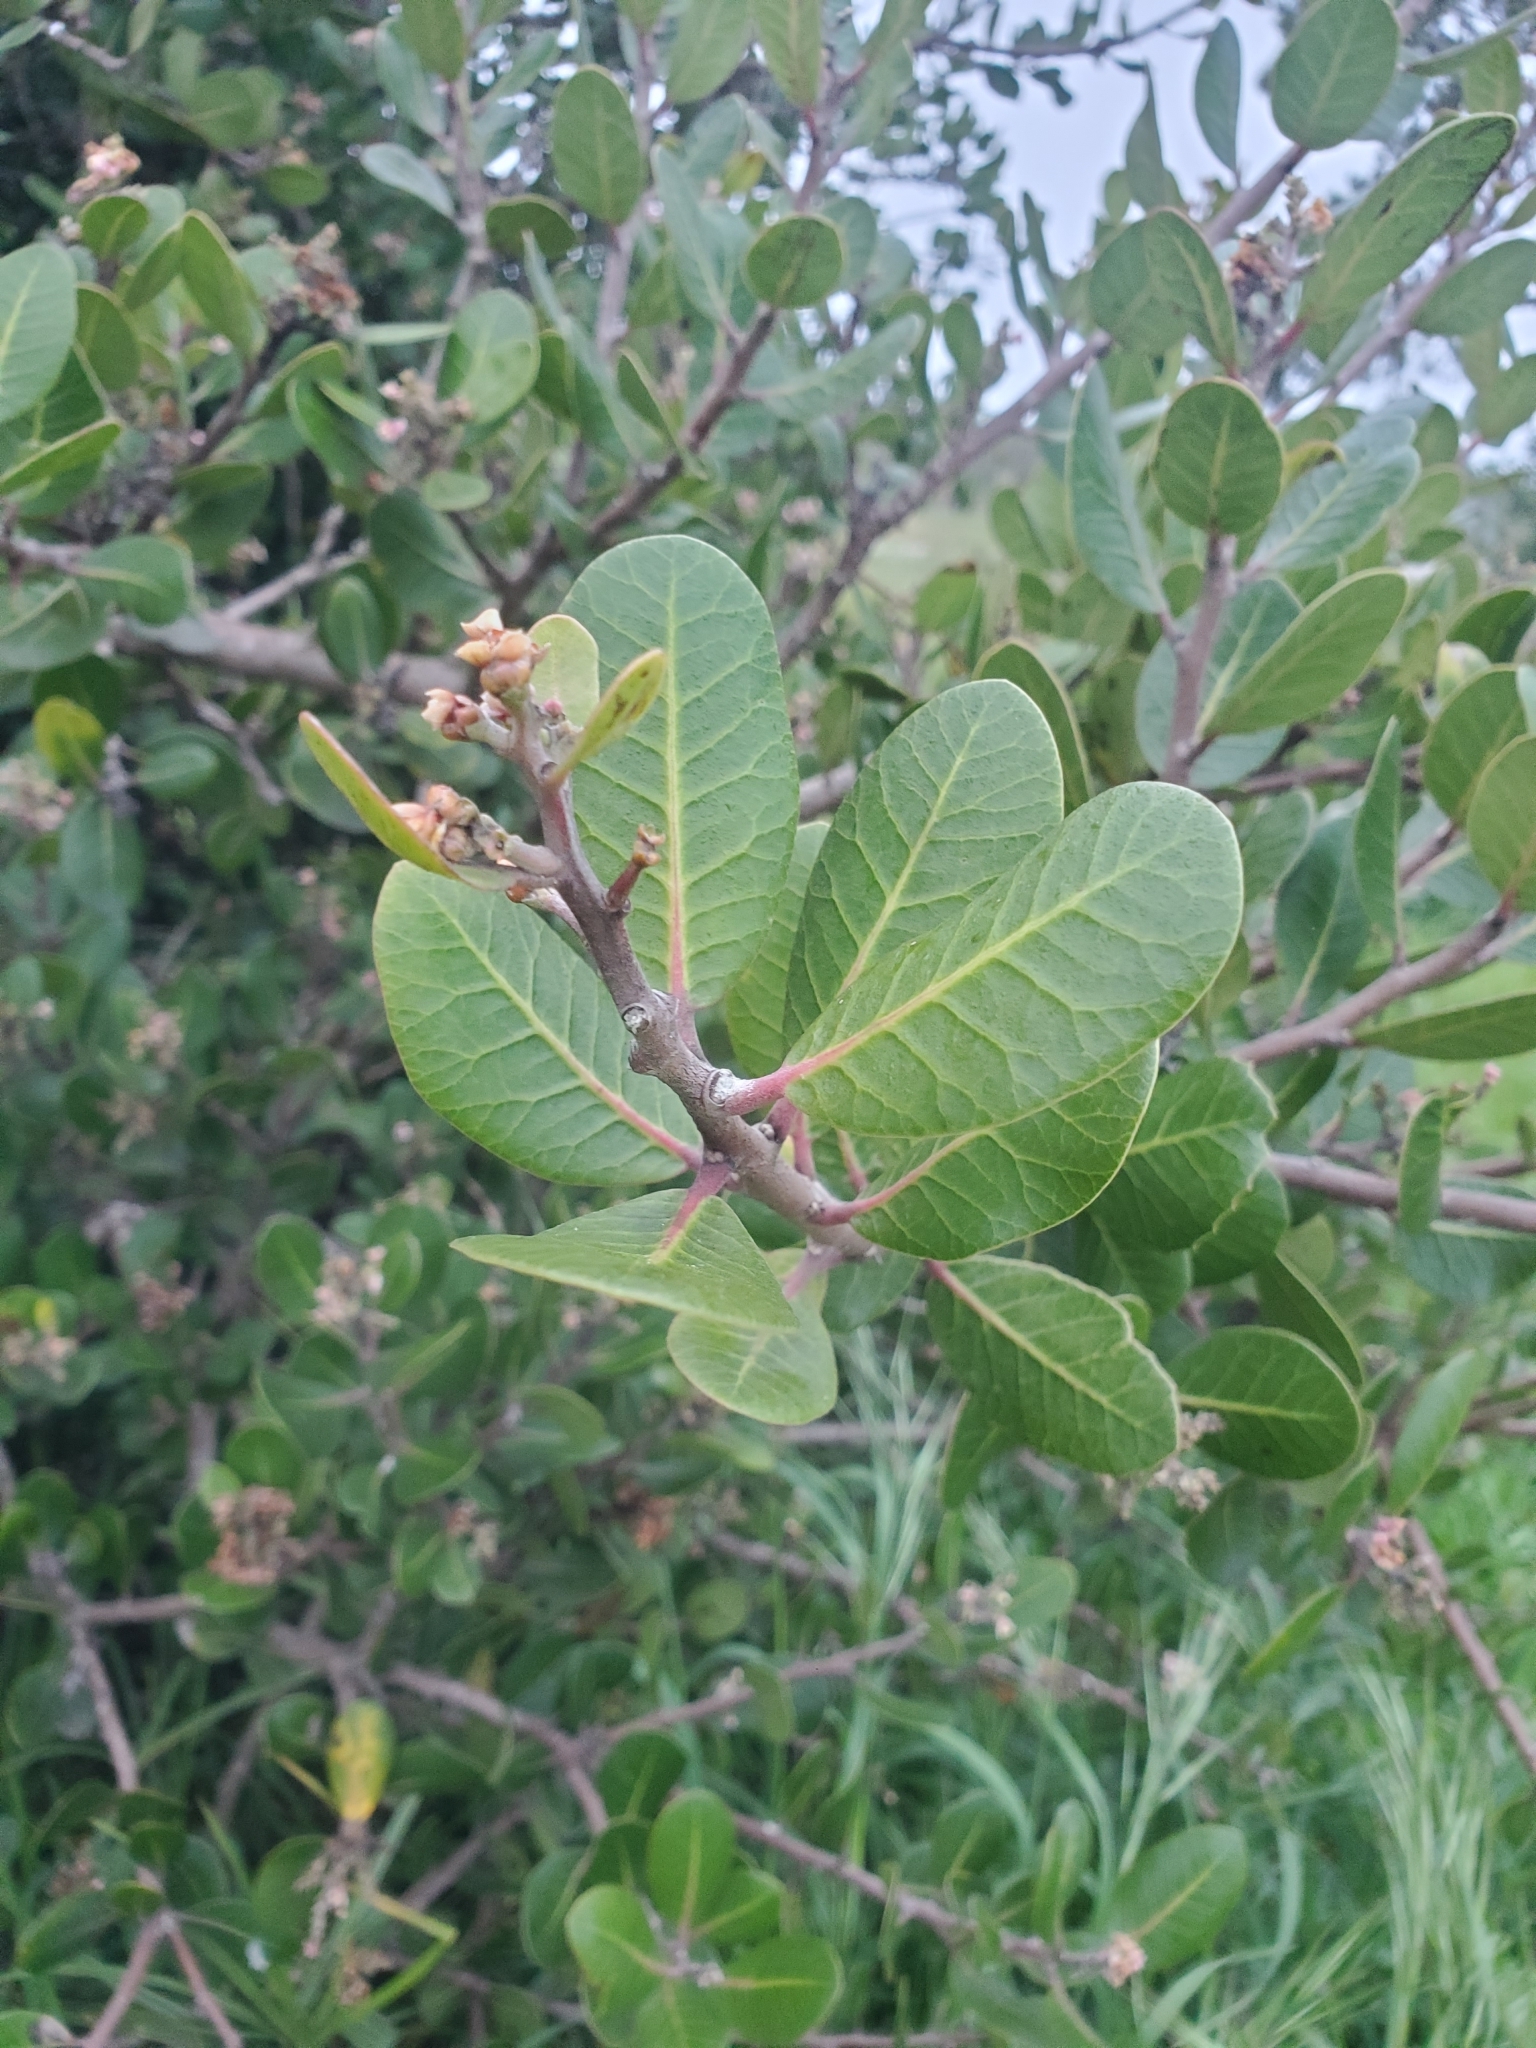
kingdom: Plantae
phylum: Tracheophyta
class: Magnoliopsida
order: Sapindales
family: Anacardiaceae
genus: Rhus
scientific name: Rhus integrifolia
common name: Lemonade sumac
